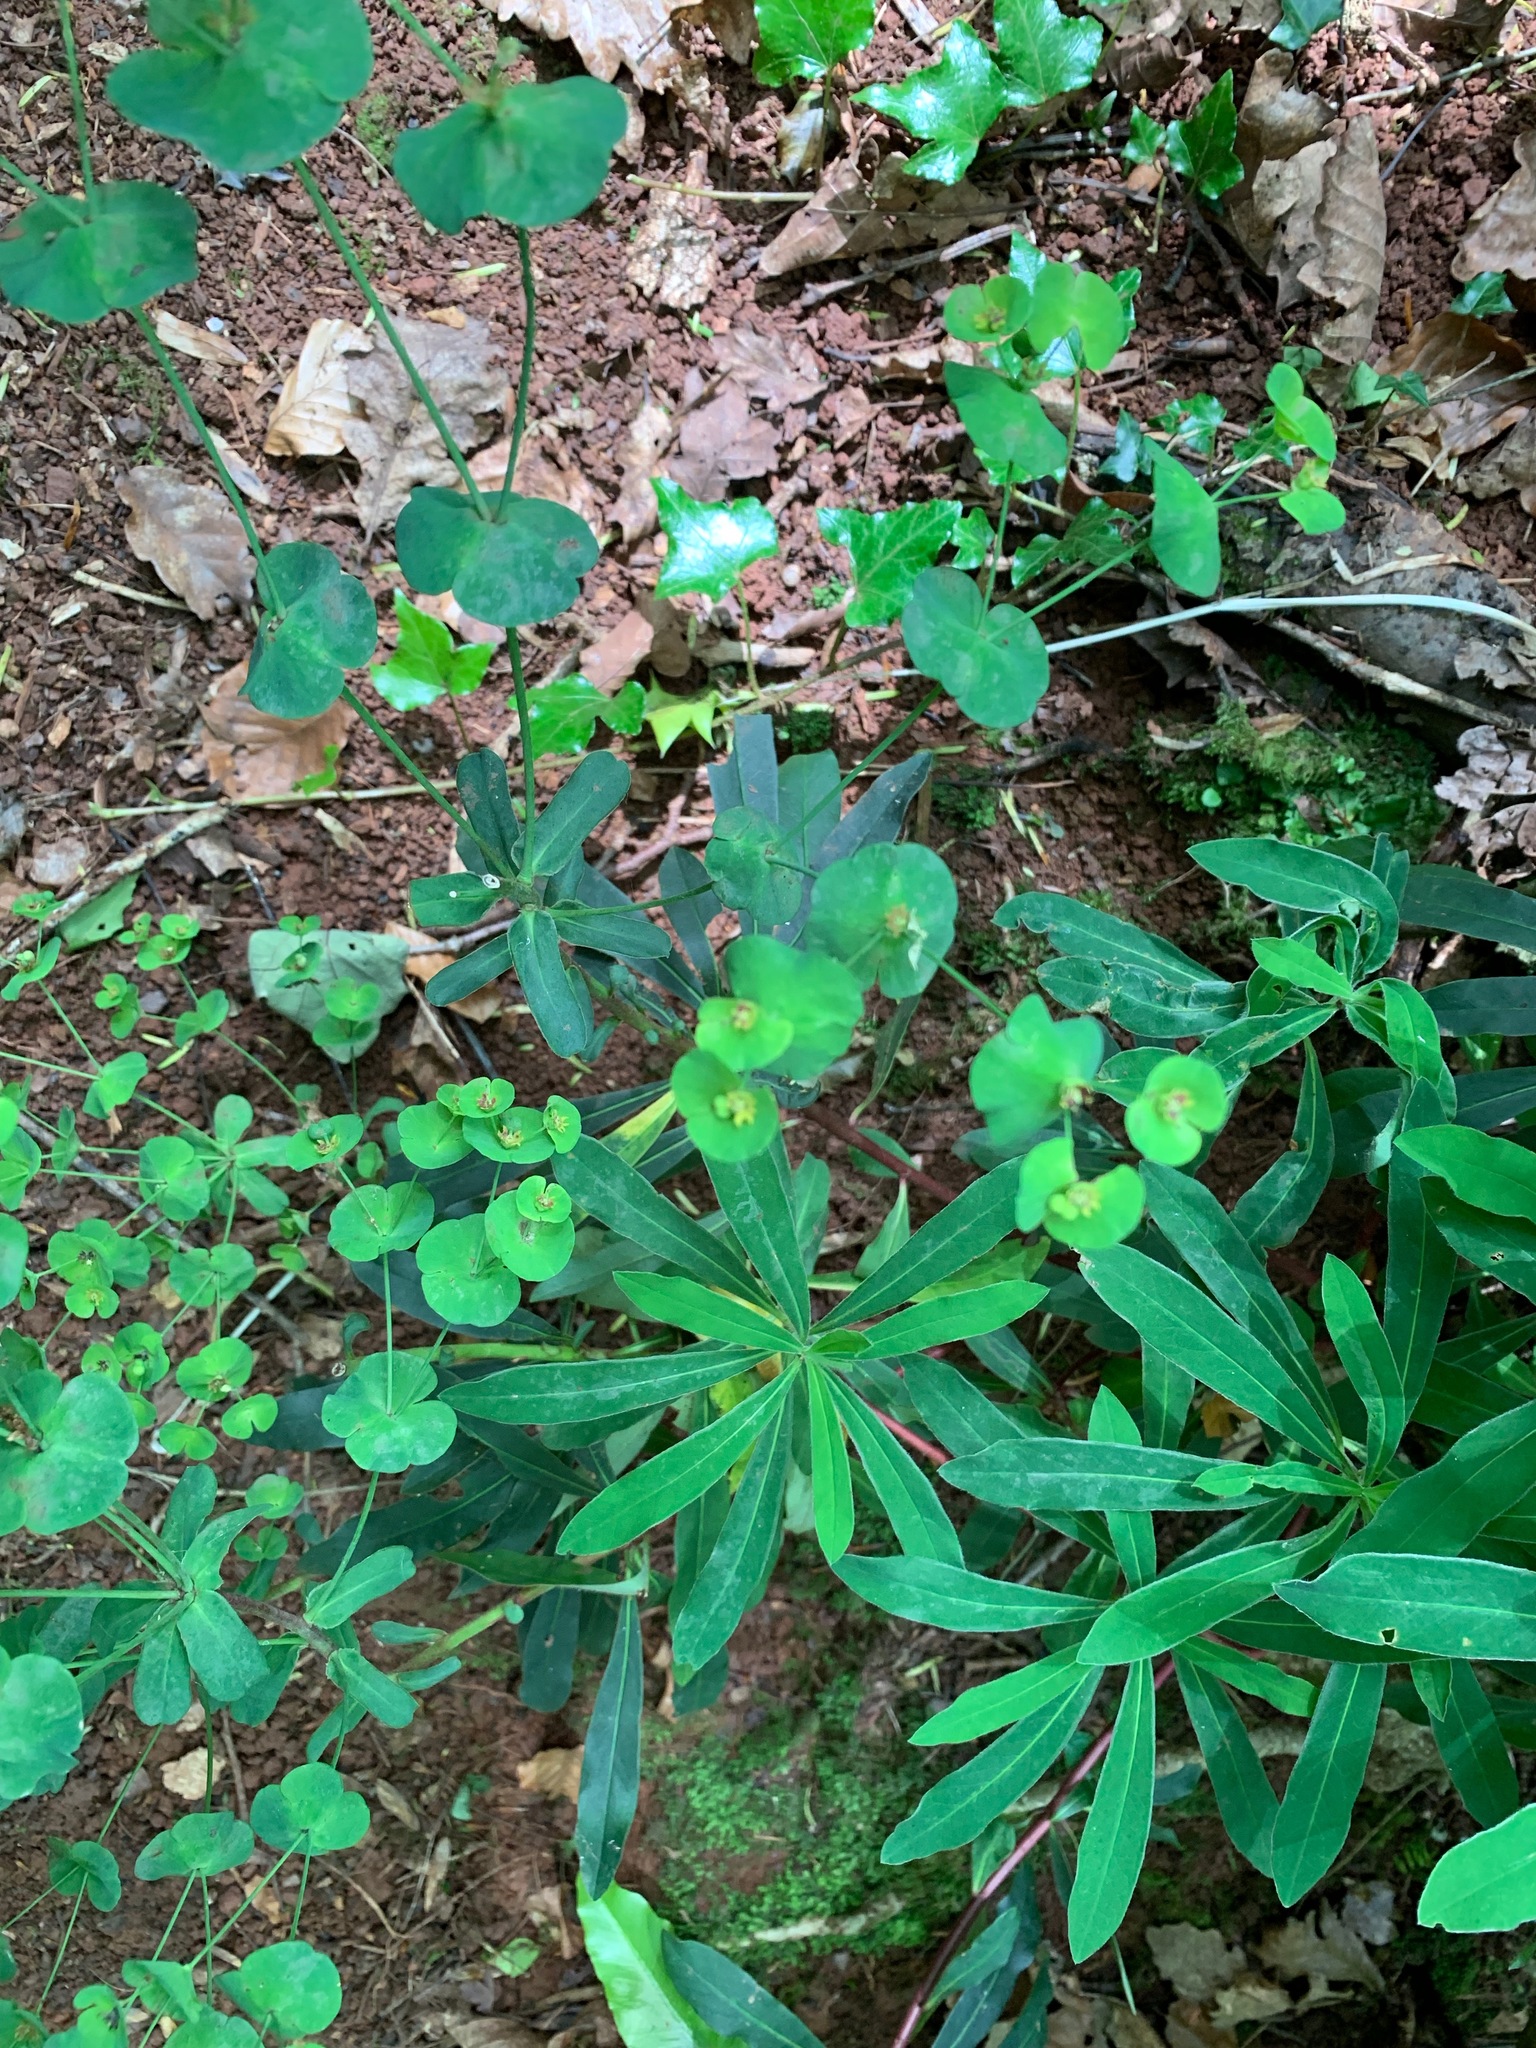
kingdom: Plantae
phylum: Tracheophyta
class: Magnoliopsida
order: Malpighiales
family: Euphorbiaceae
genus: Euphorbia
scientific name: Euphorbia amygdaloides
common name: Wood spurge
